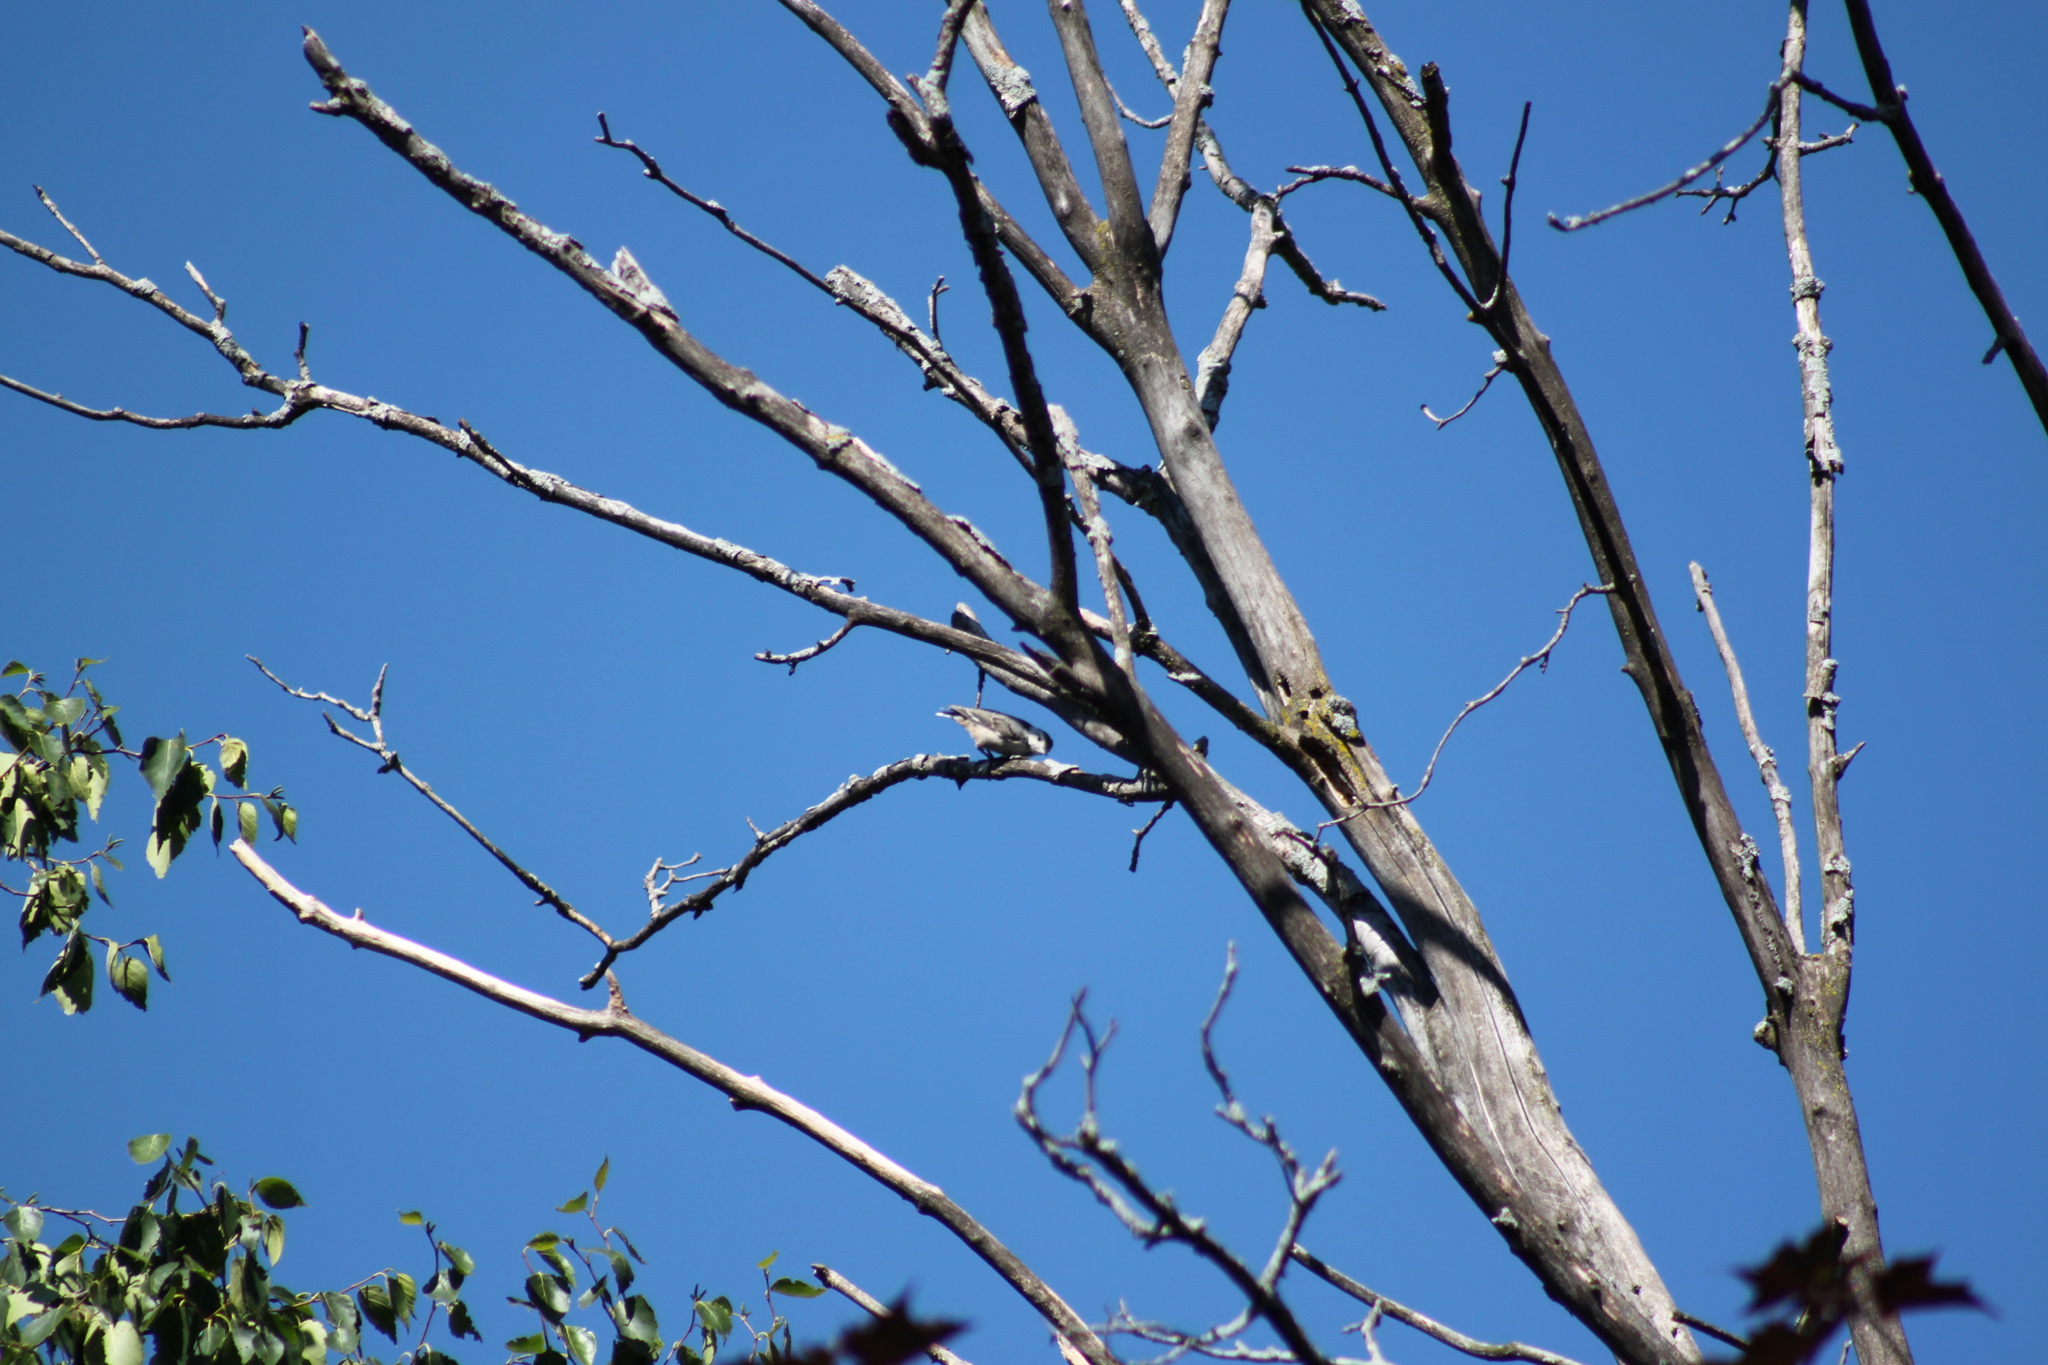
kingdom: Animalia
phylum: Chordata
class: Aves
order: Passeriformes
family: Sittidae
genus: Sitta
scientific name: Sitta carolinensis
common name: White-breasted nuthatch
